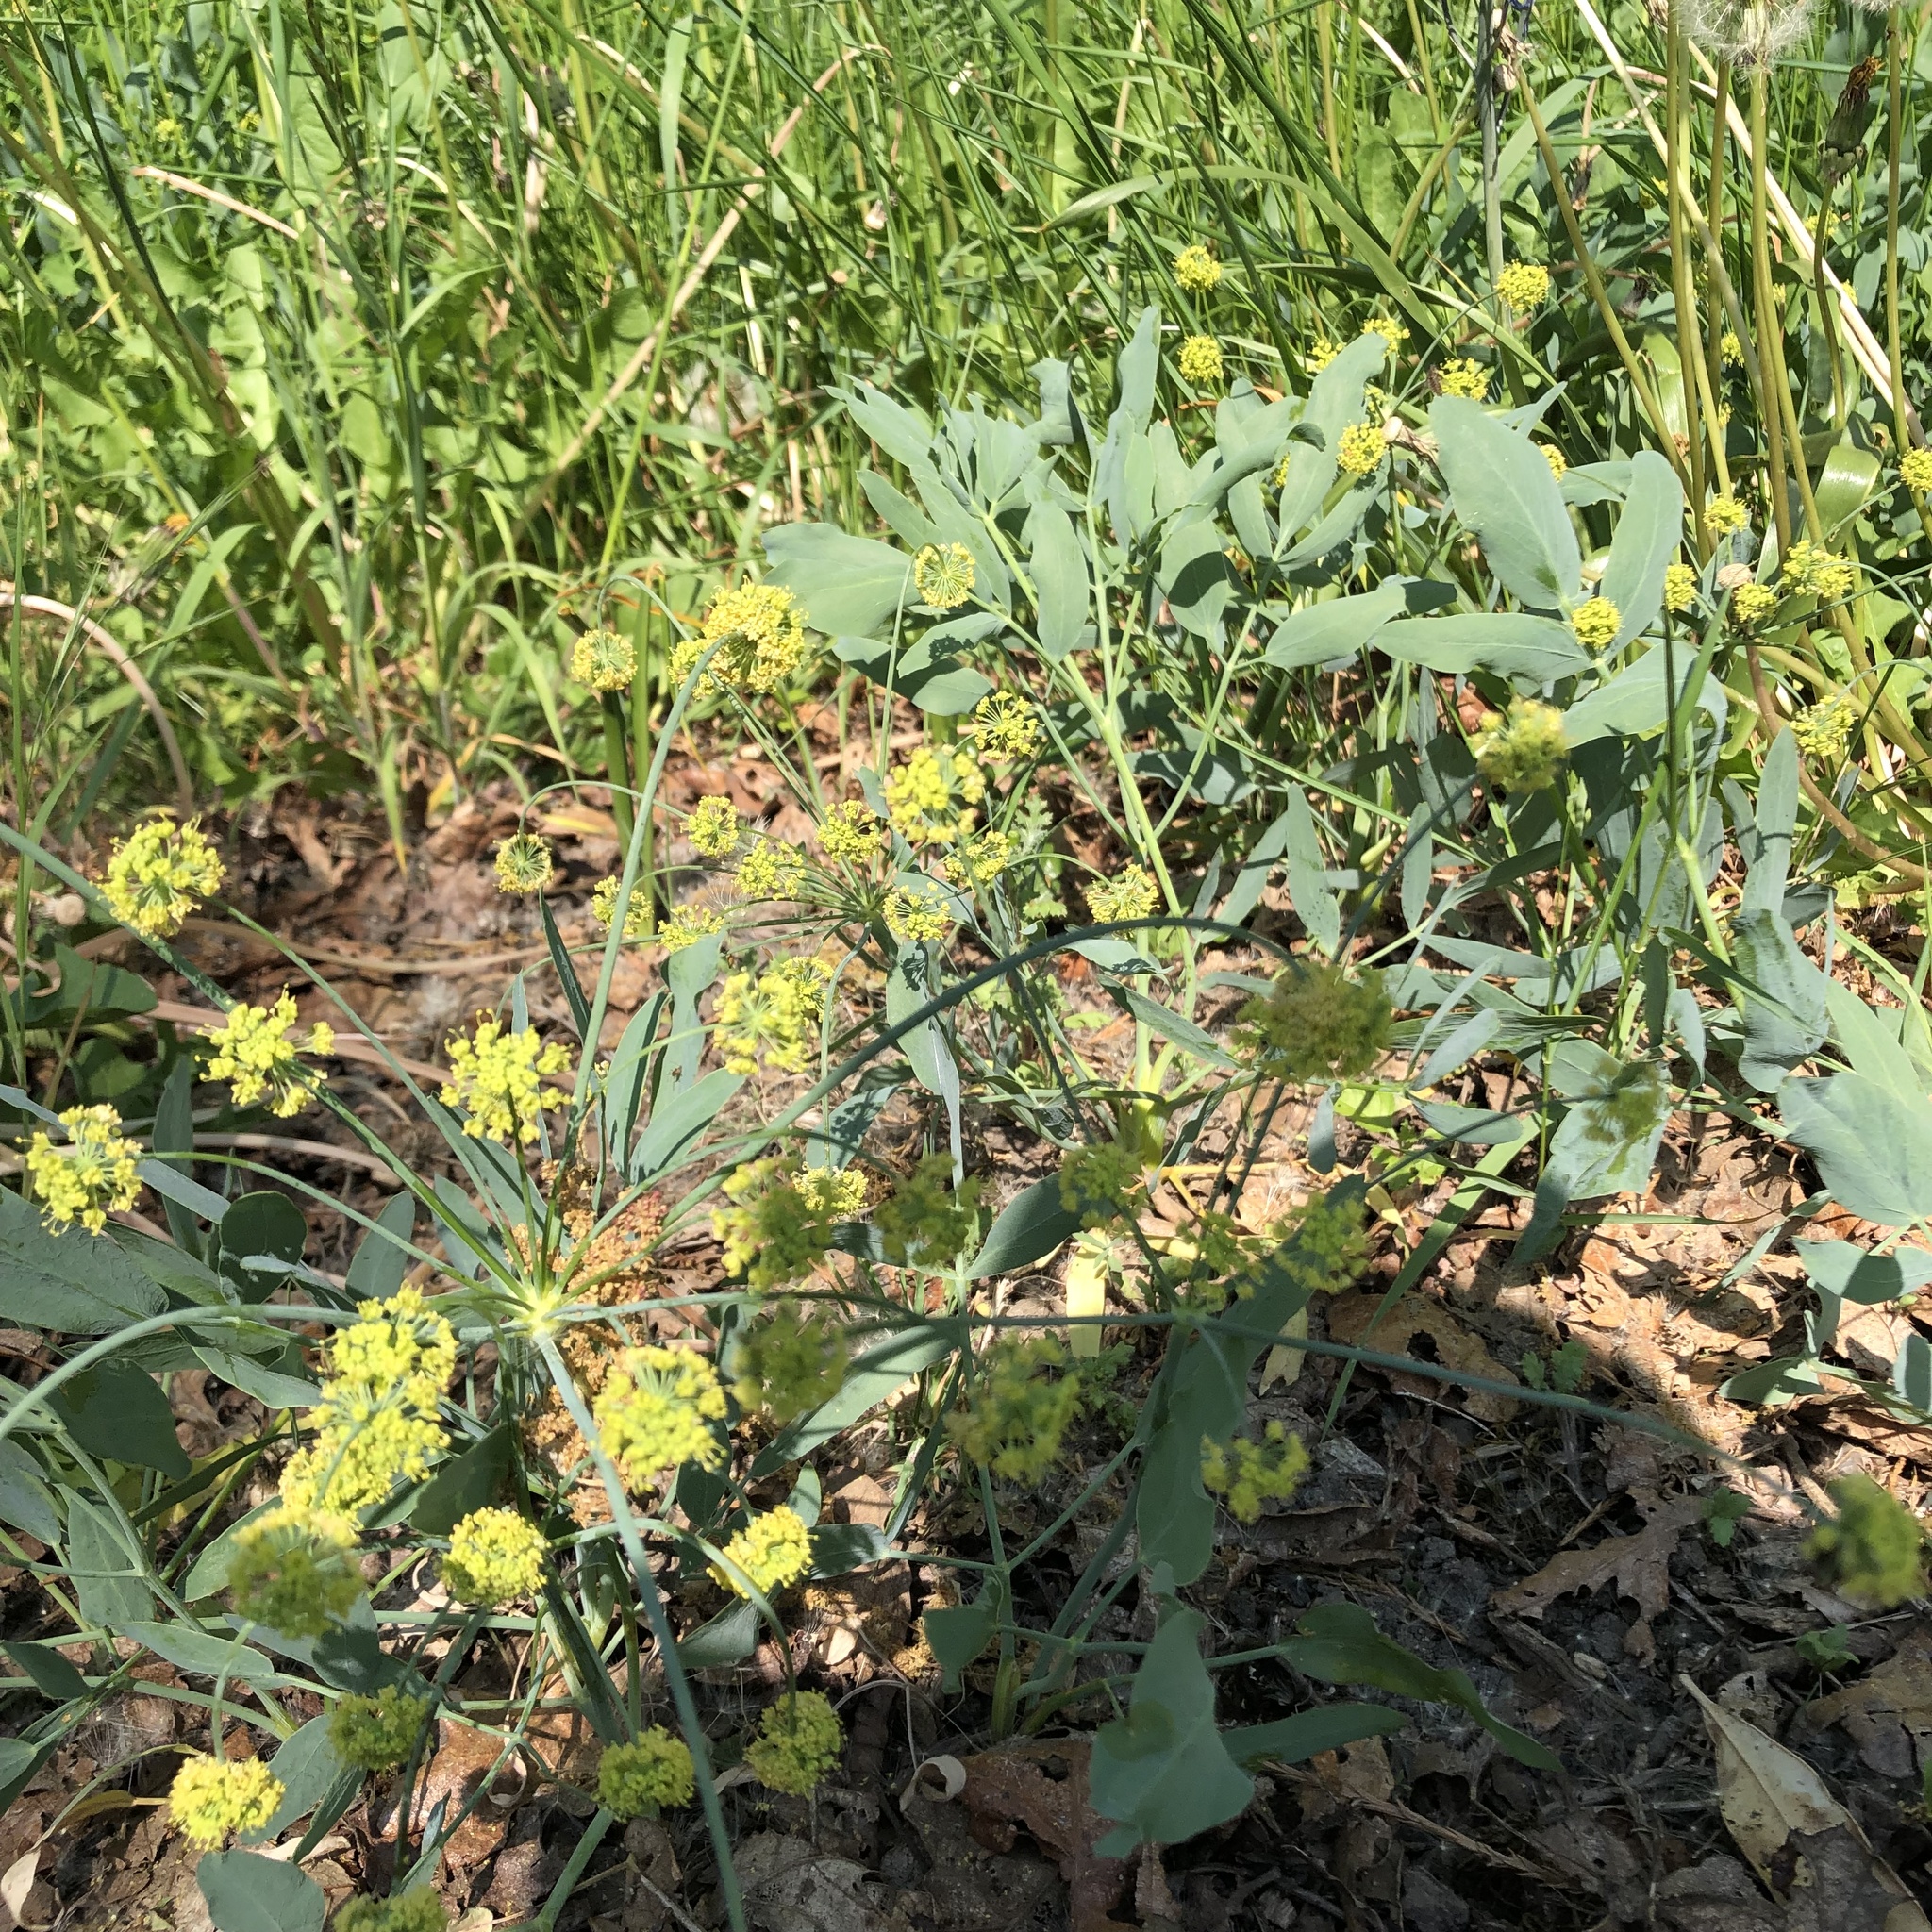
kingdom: Plantae
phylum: Tracheophyta
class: Magnoliopsida
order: Apiales
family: Apiaceae
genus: Lomatium
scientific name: Lomatium nudicaule
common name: Pestle lomatium
